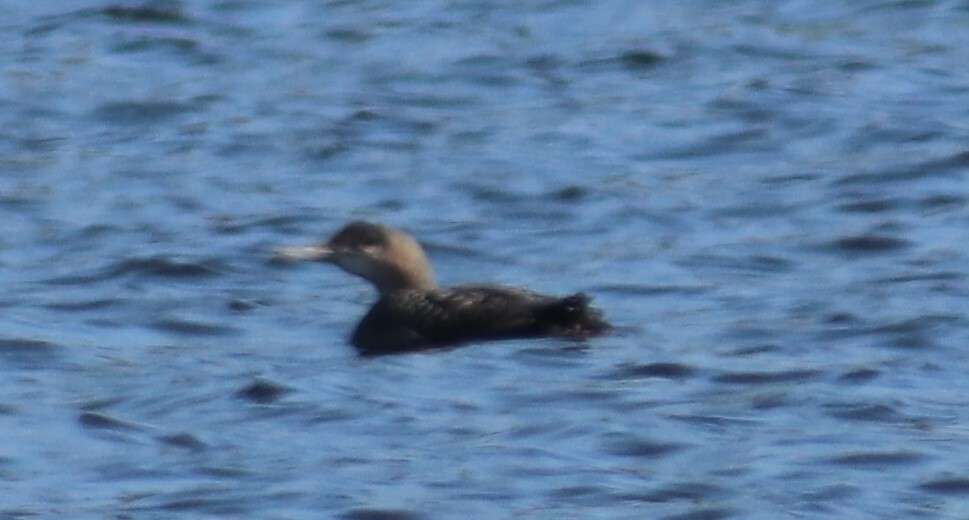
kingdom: Animalia
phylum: Chordata
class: Aves
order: Gaviiformes
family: Gaviidae
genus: Gavia
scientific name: Gavia immer
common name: Common loon
